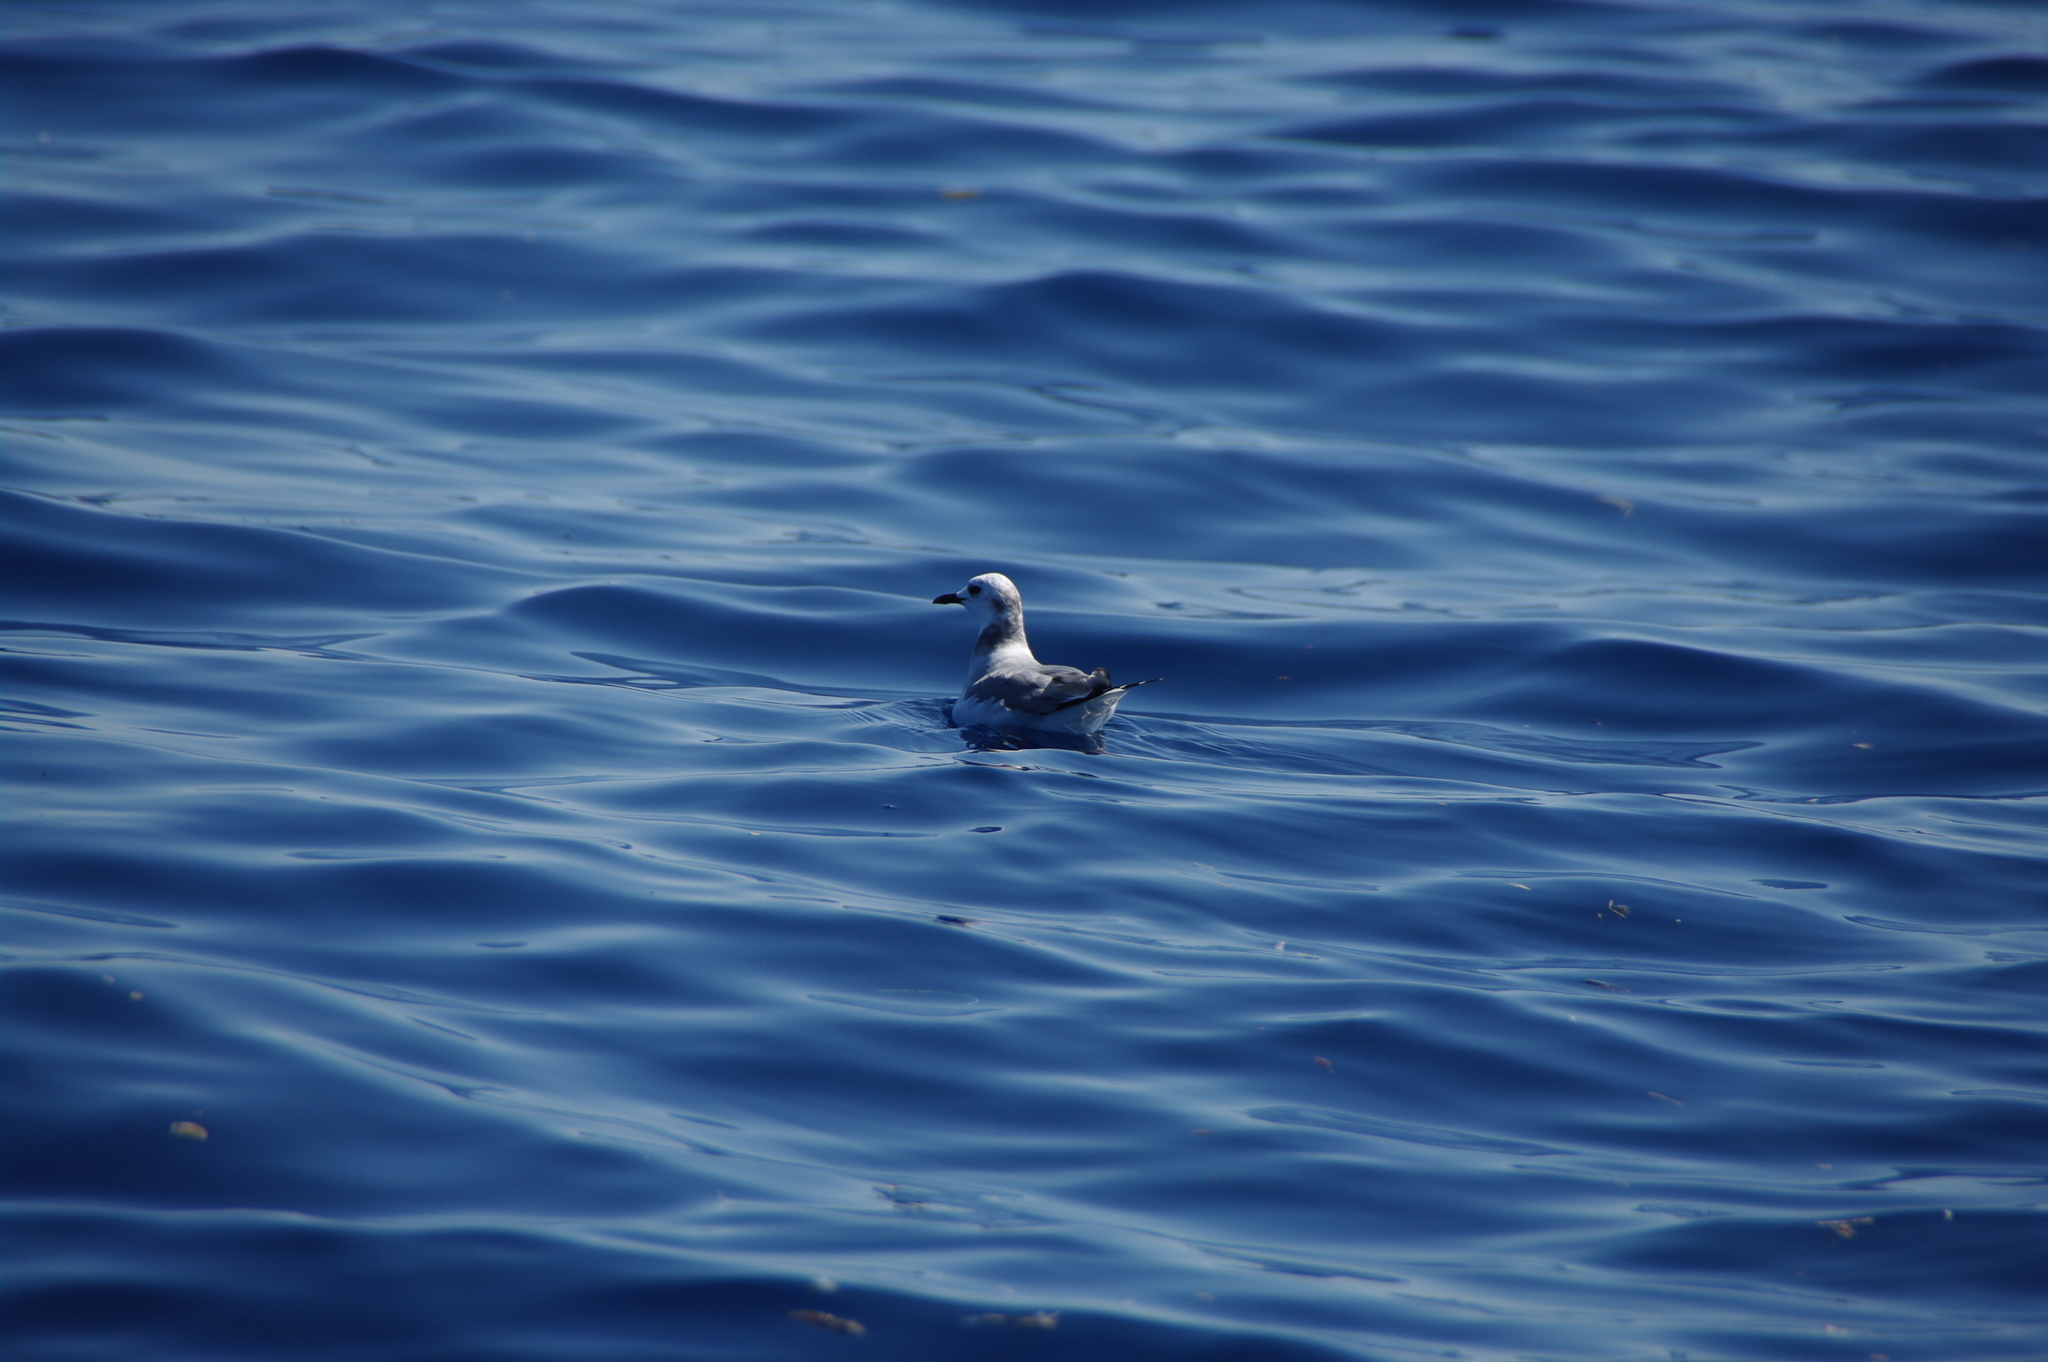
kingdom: Animalia
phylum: Chordata
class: Aves
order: Charadriiformes
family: Laridae
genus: Chroicocephalus
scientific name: Chroicocephalus philadelphia
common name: Bonaparte's gull
